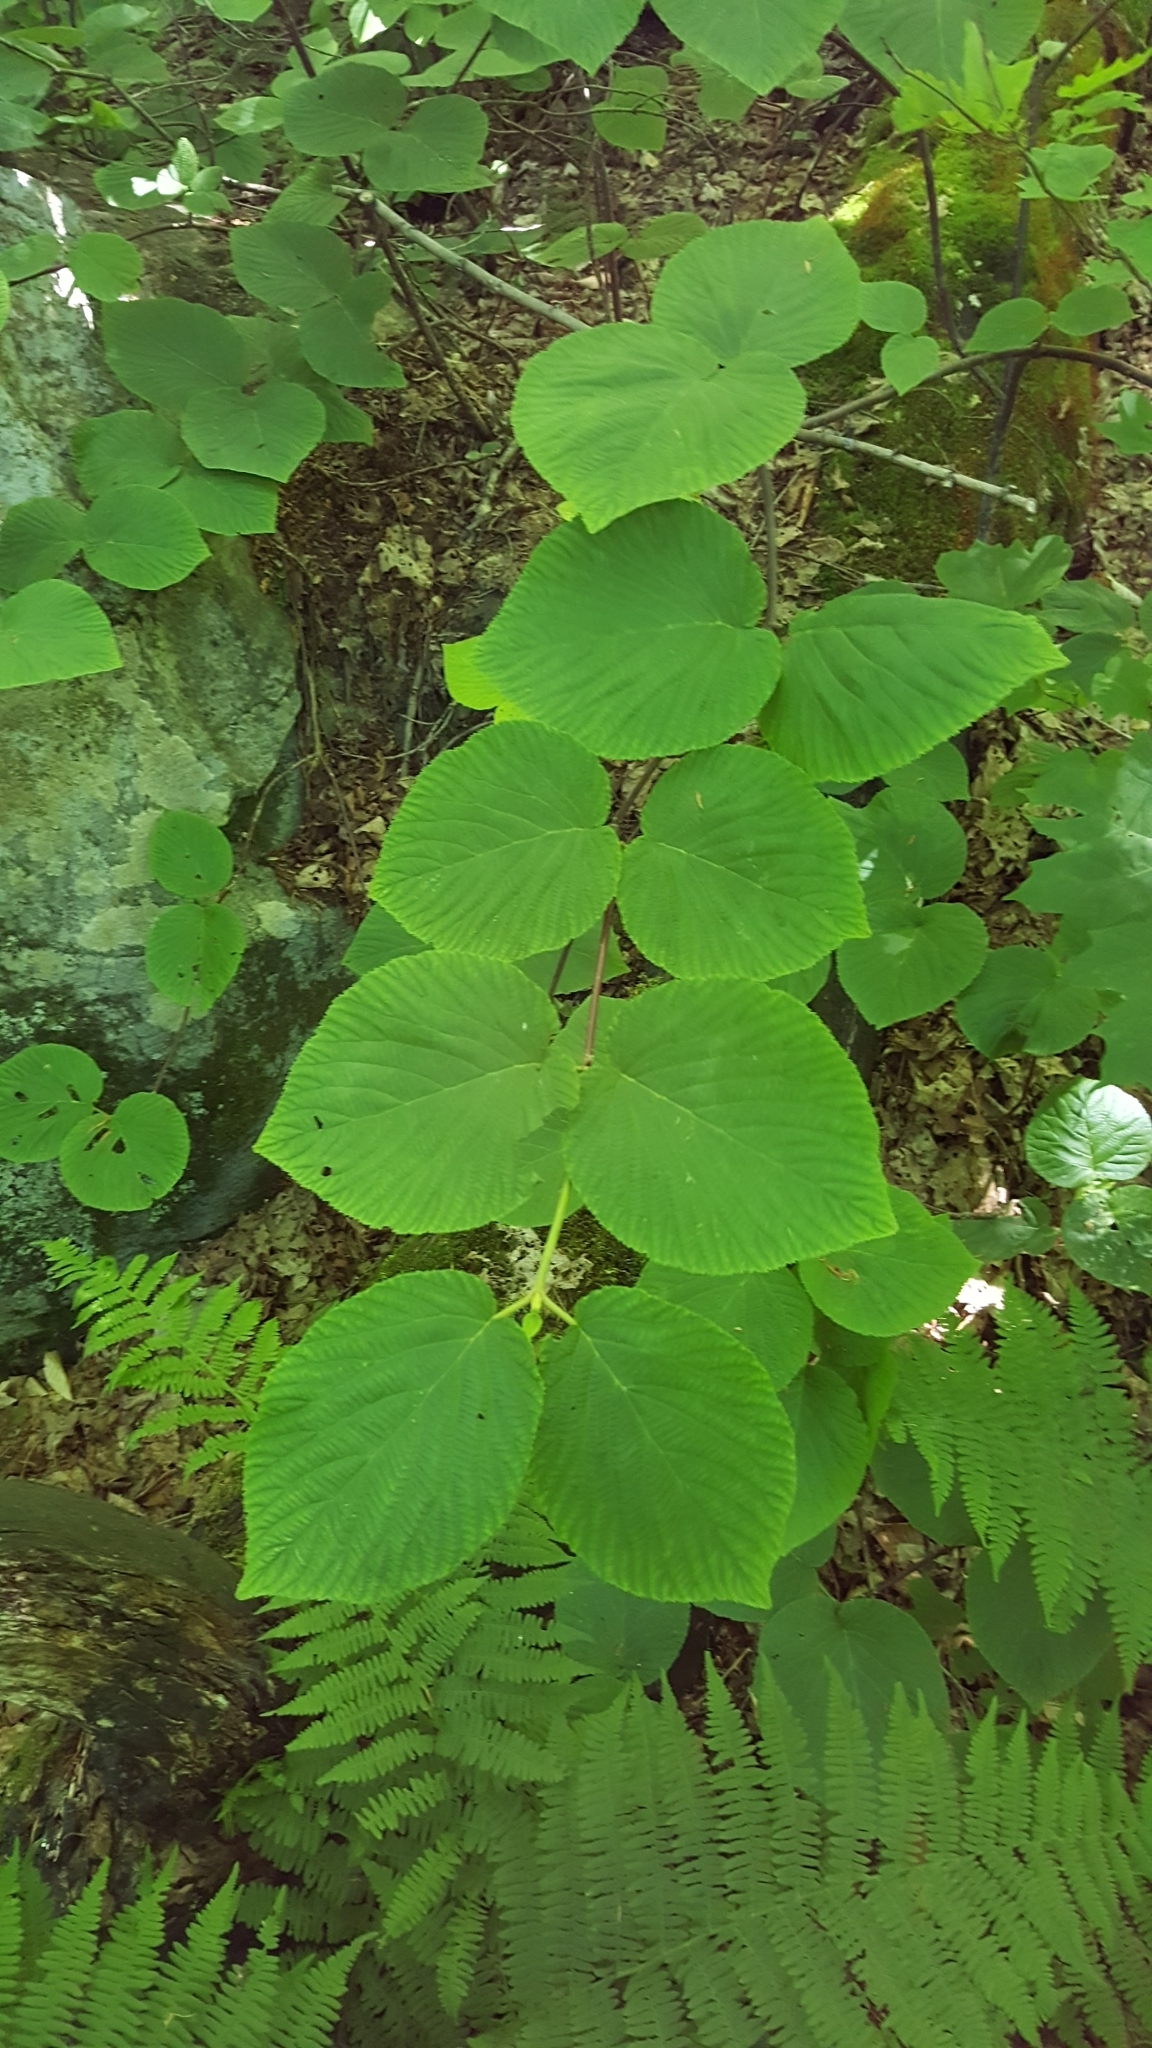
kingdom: Plantae
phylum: Tracheophyta
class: Magnoliopsida
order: Dipsacales
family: Viburnaceae
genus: Viburnum
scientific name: Viburnum lantanoides
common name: Hobblebush
